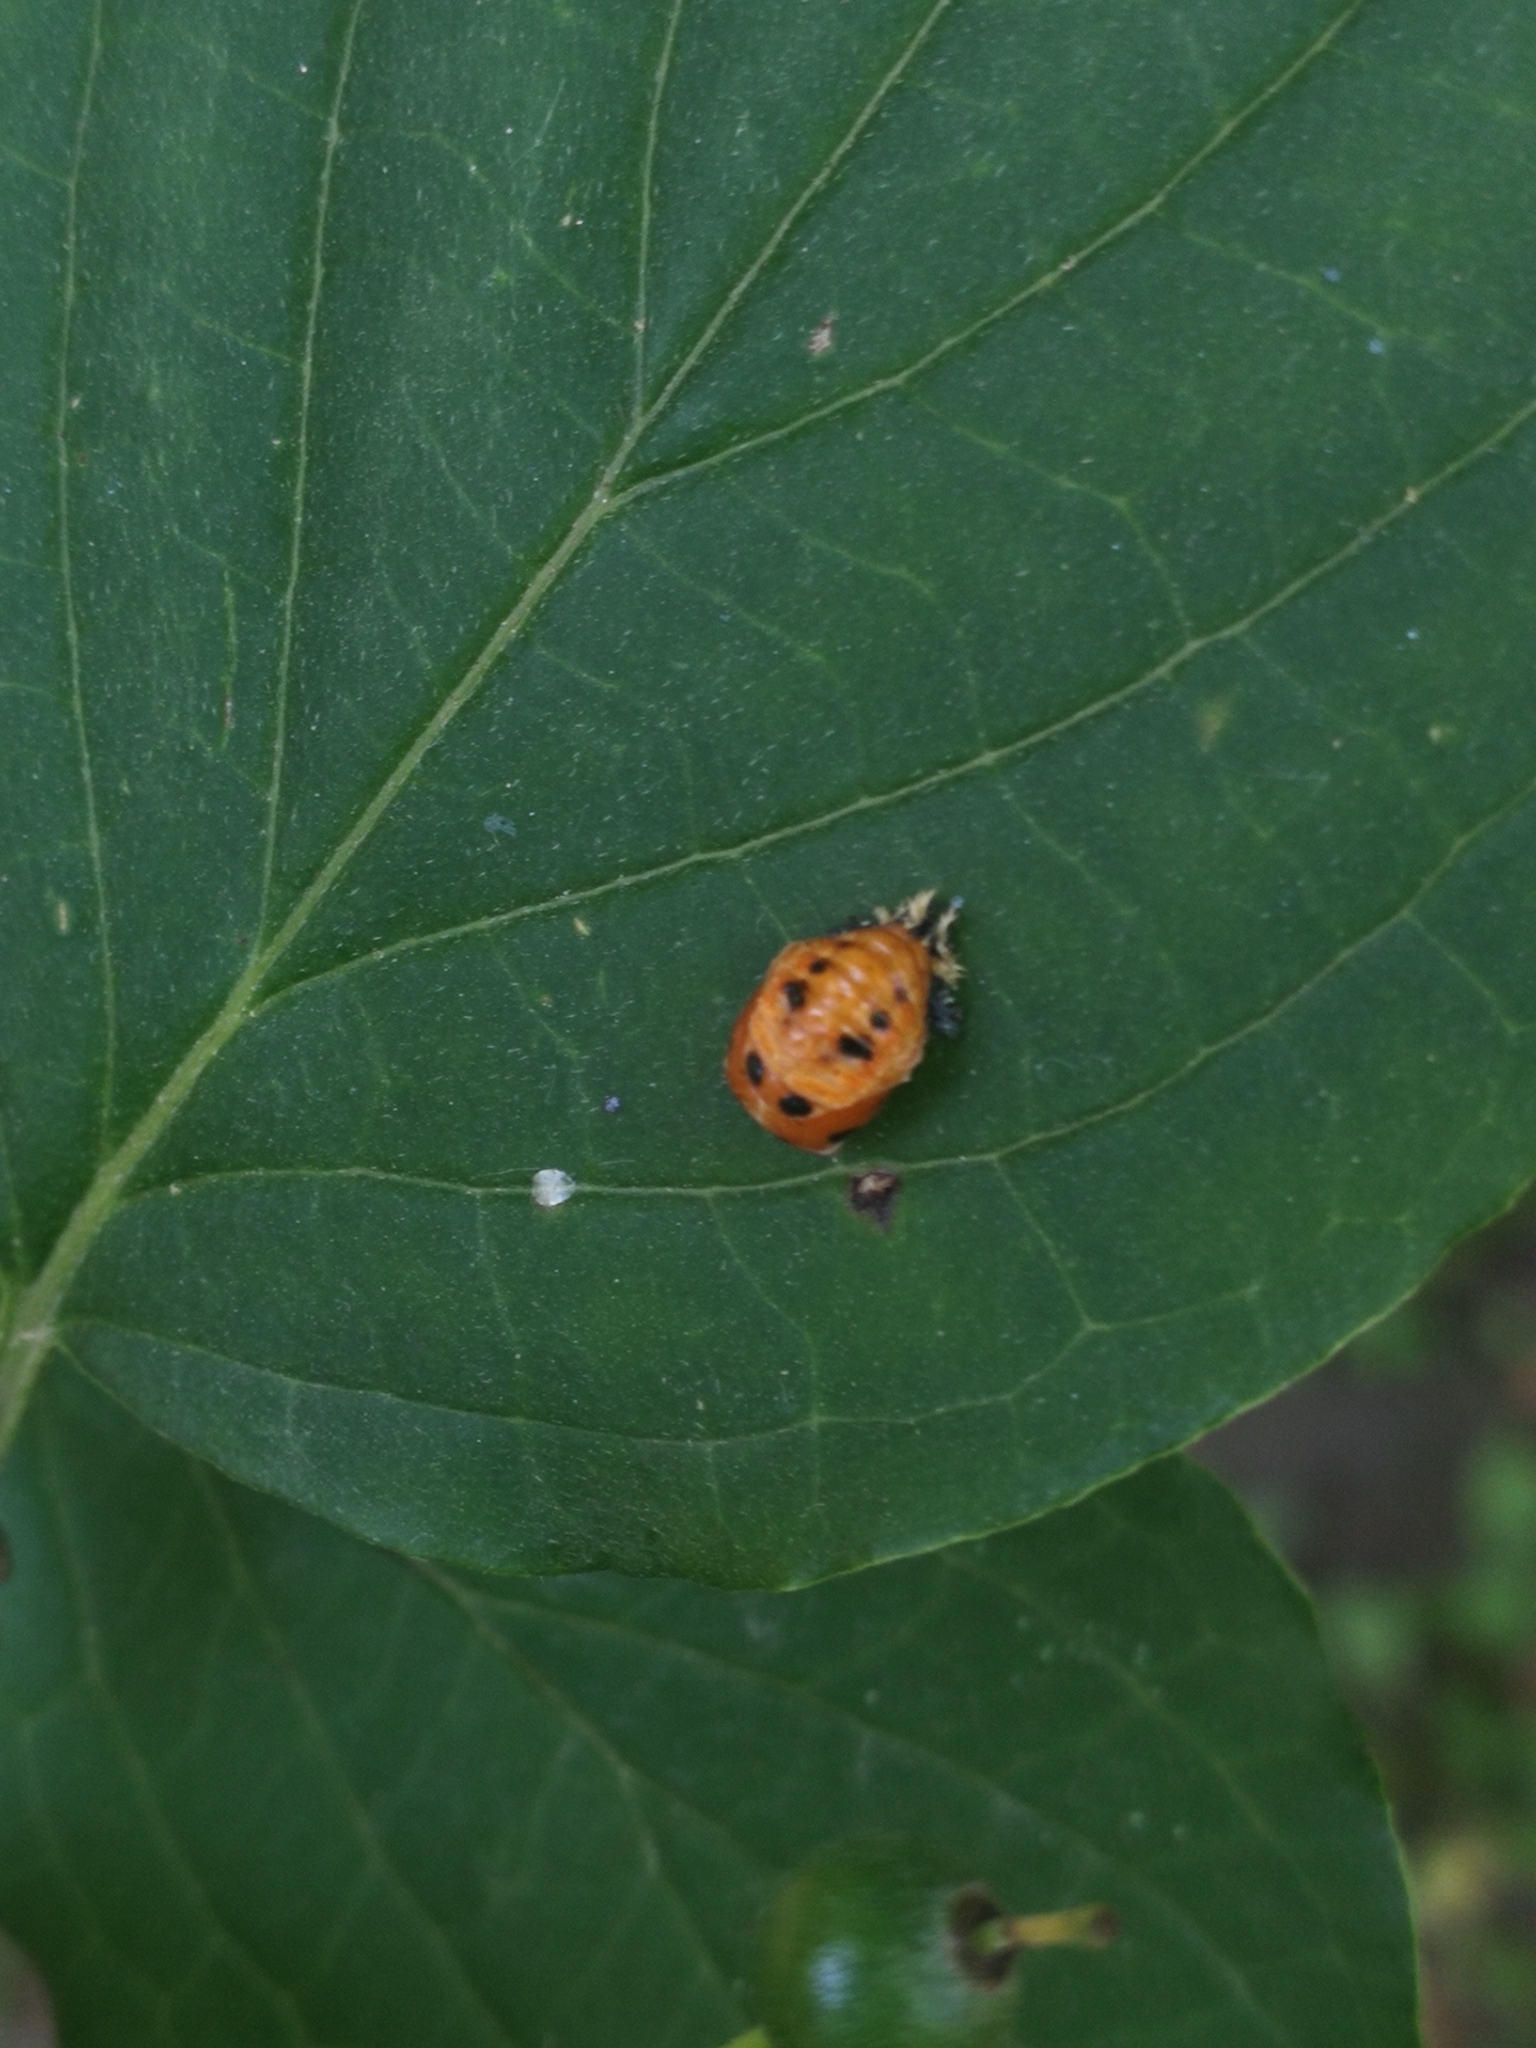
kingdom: Animalia
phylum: Arthropoda
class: Insecta
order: Coleoptera
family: Coccinellidae
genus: Harmonia
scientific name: Harmonia axyridis
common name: Harlequin ladybird
